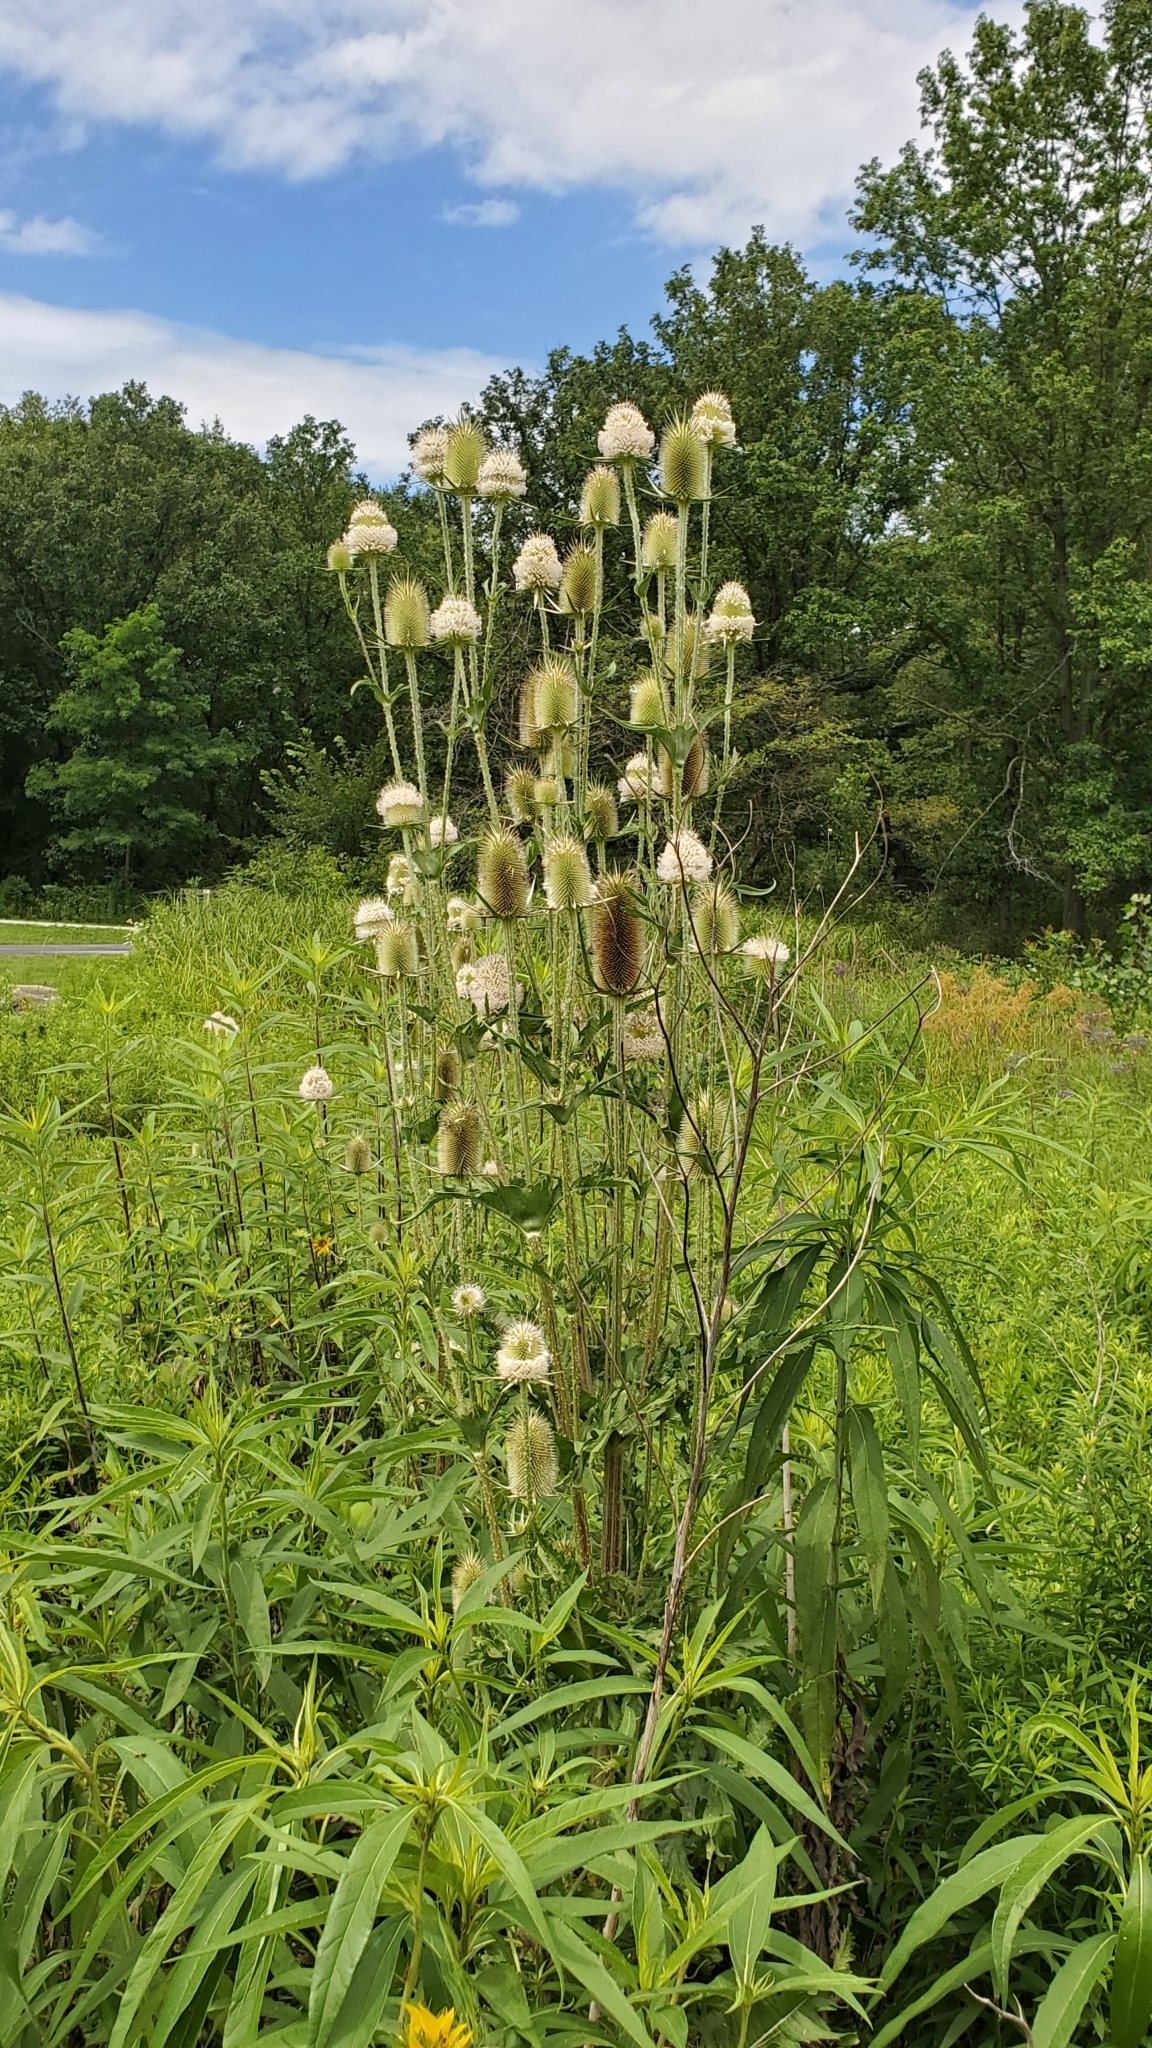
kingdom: Plantae
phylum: Tracheophyta
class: Magnoliopsida
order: Dipsacales
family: Caprifoliaceae
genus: Dipsacus
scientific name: Dipsacus laciniatus
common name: Cut-leaved teasel
